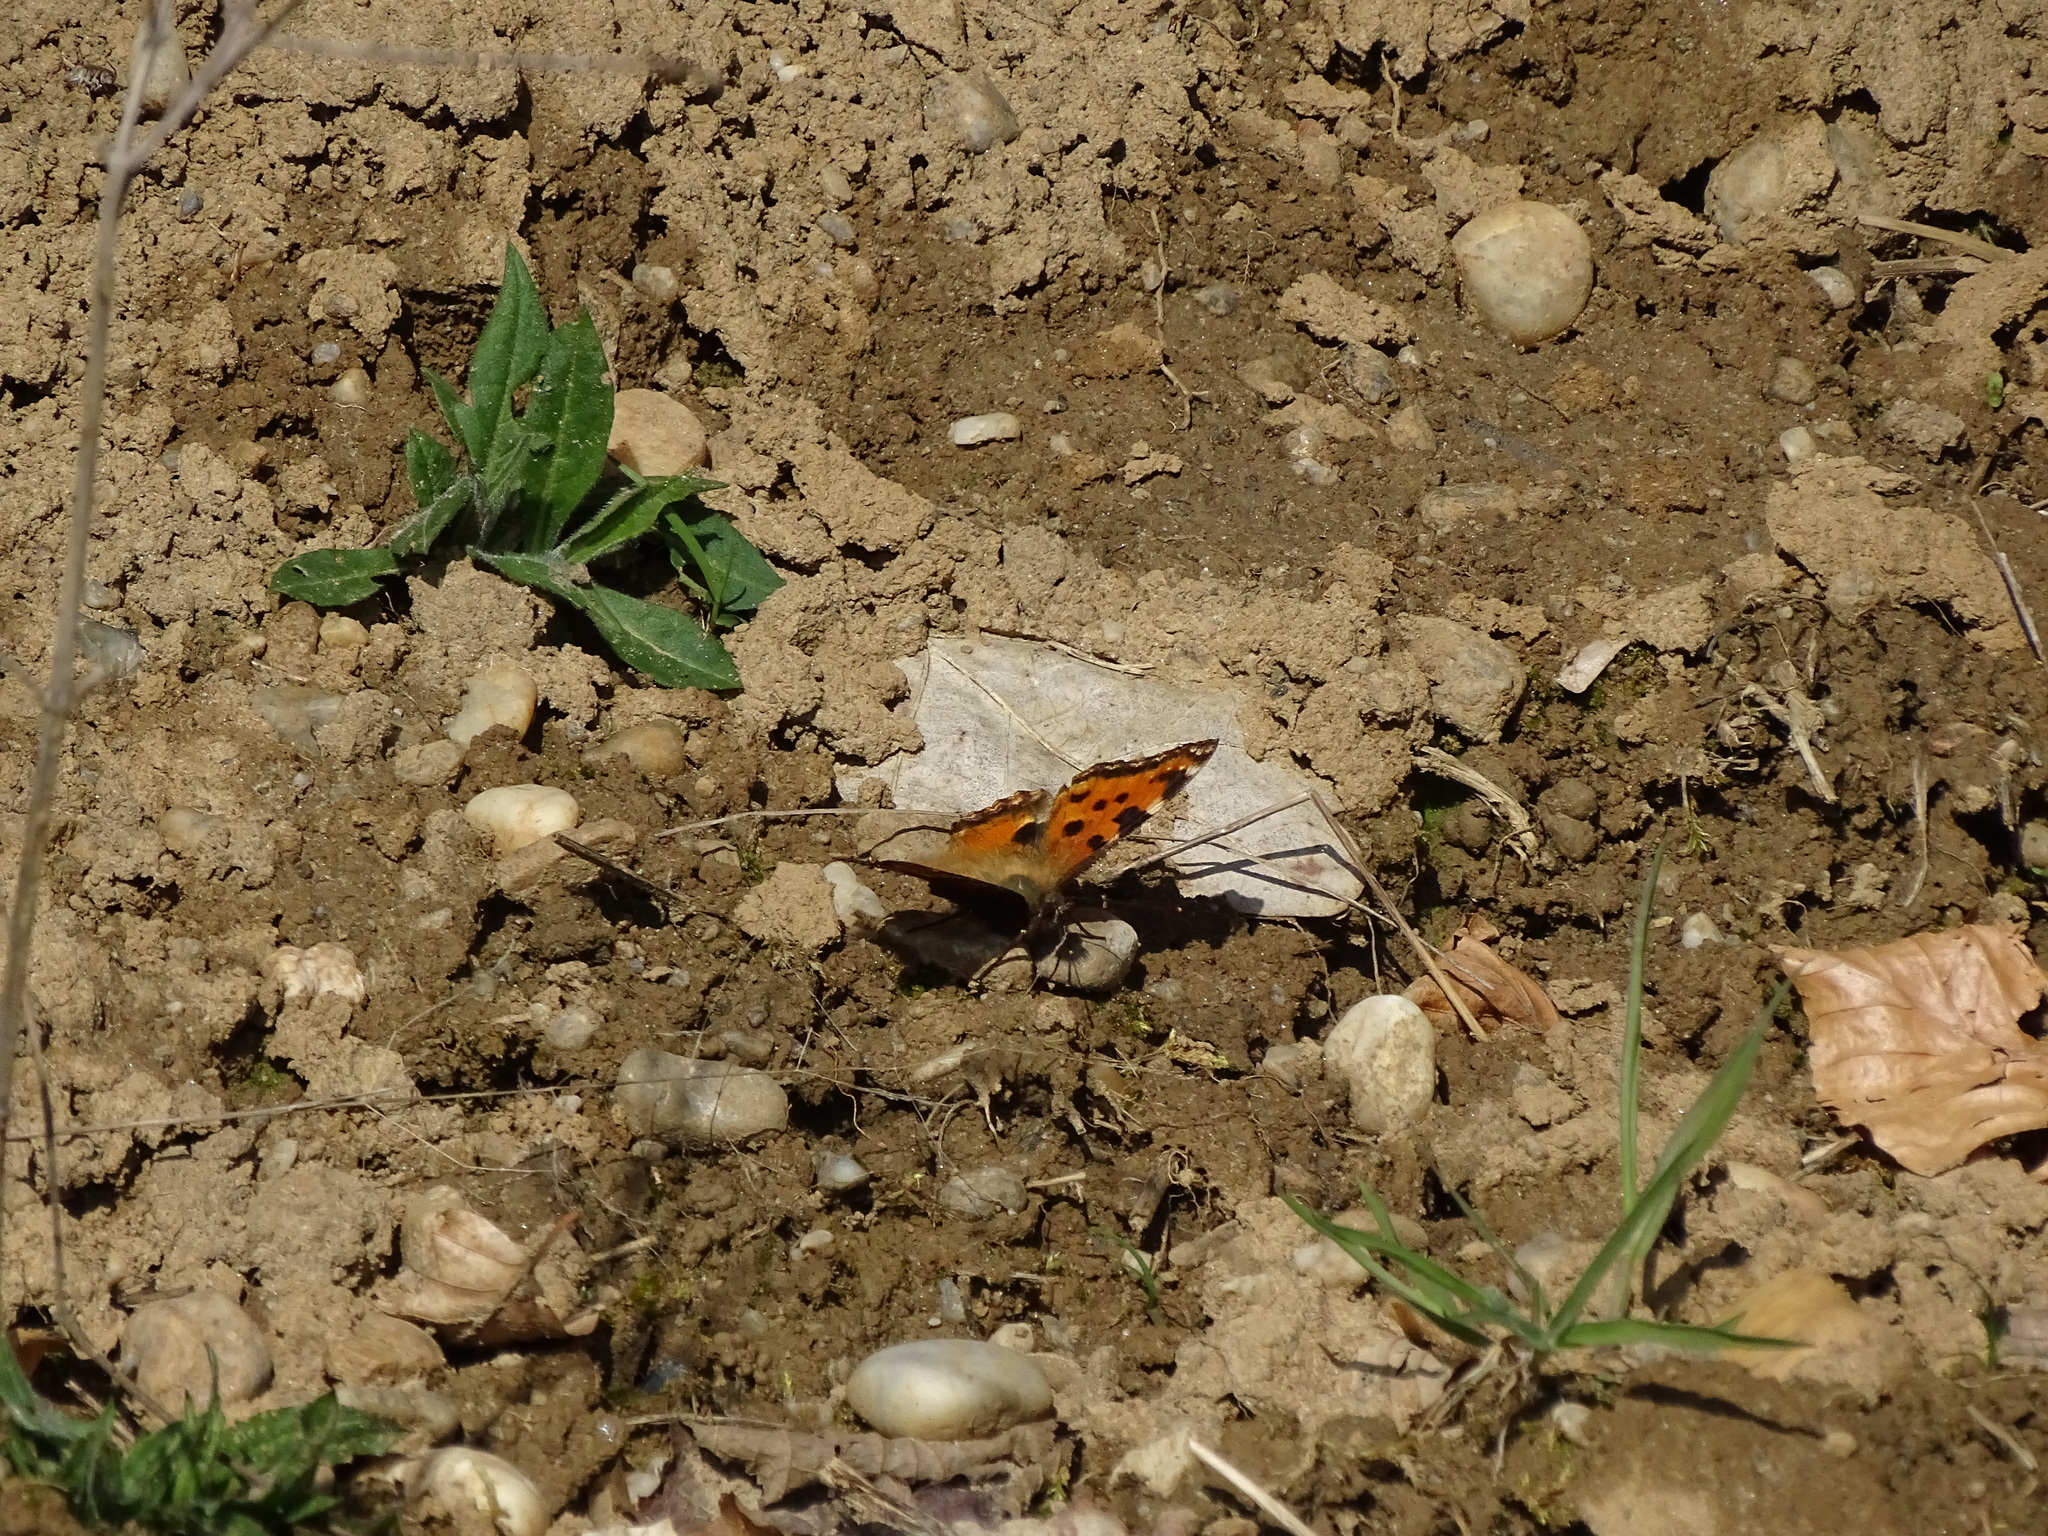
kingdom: Animalia
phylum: Arthropoda
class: Insecta
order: Lepidoptera
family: Nymphalidae
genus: Nymphalis
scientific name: Nymphalis polychloros
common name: Large tortoiseshell
